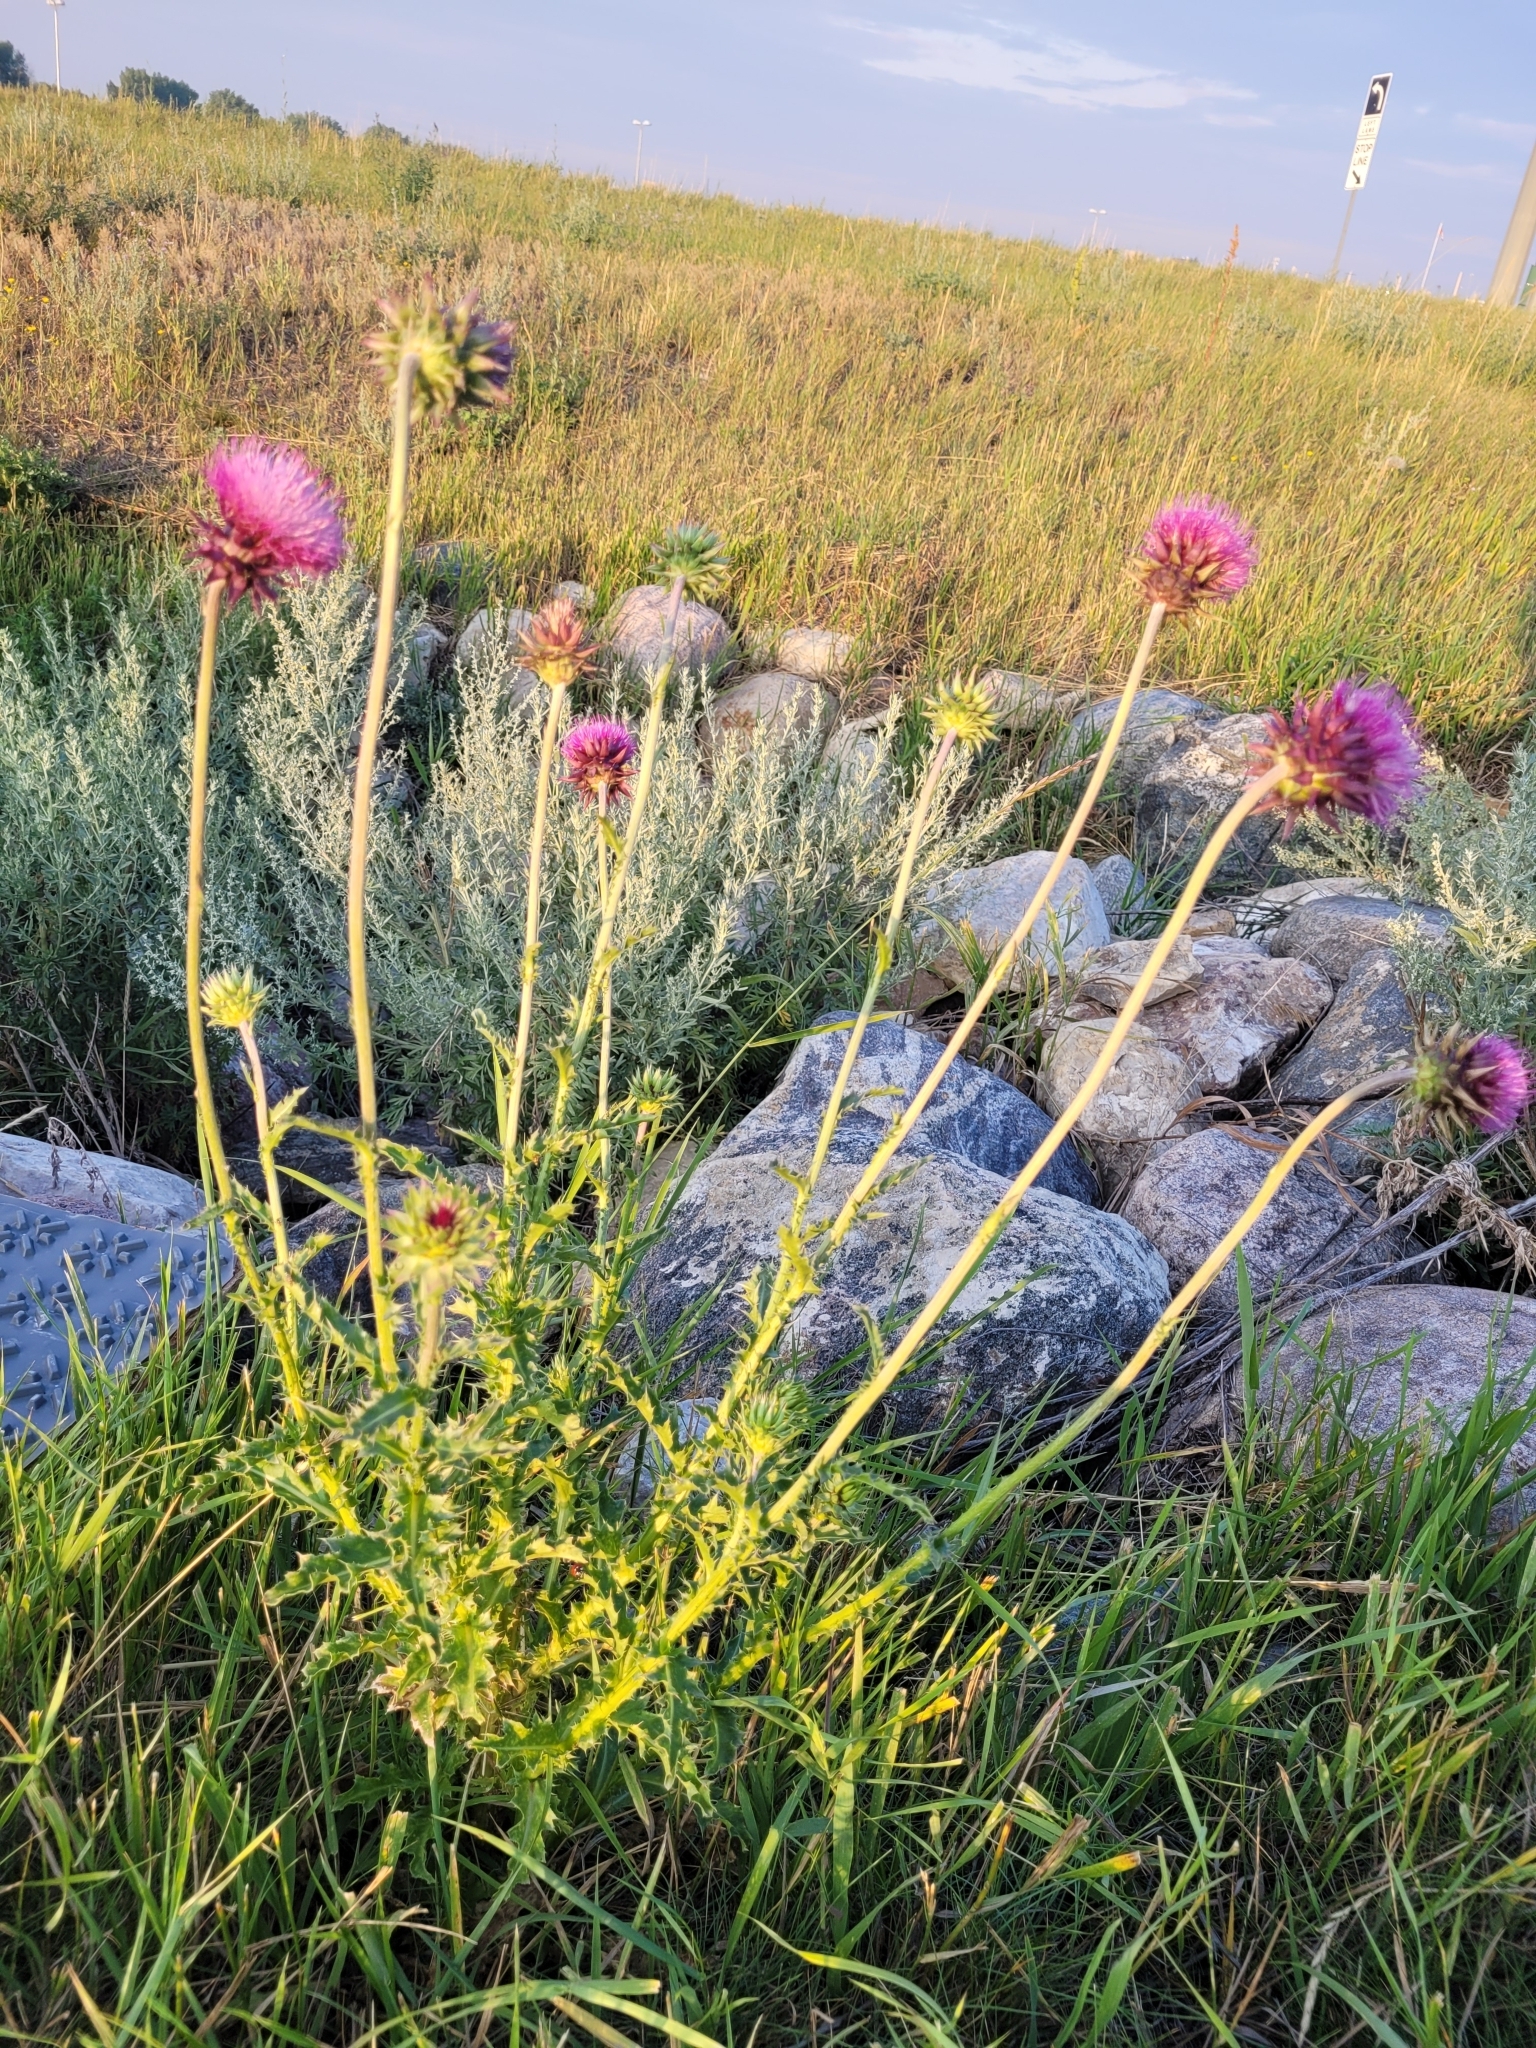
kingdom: Plantae
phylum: Tracheophyta
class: Magnoliopsida
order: Asterales
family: Asteraceae
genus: Carduus
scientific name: Carduus nutans
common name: Musk thistle
